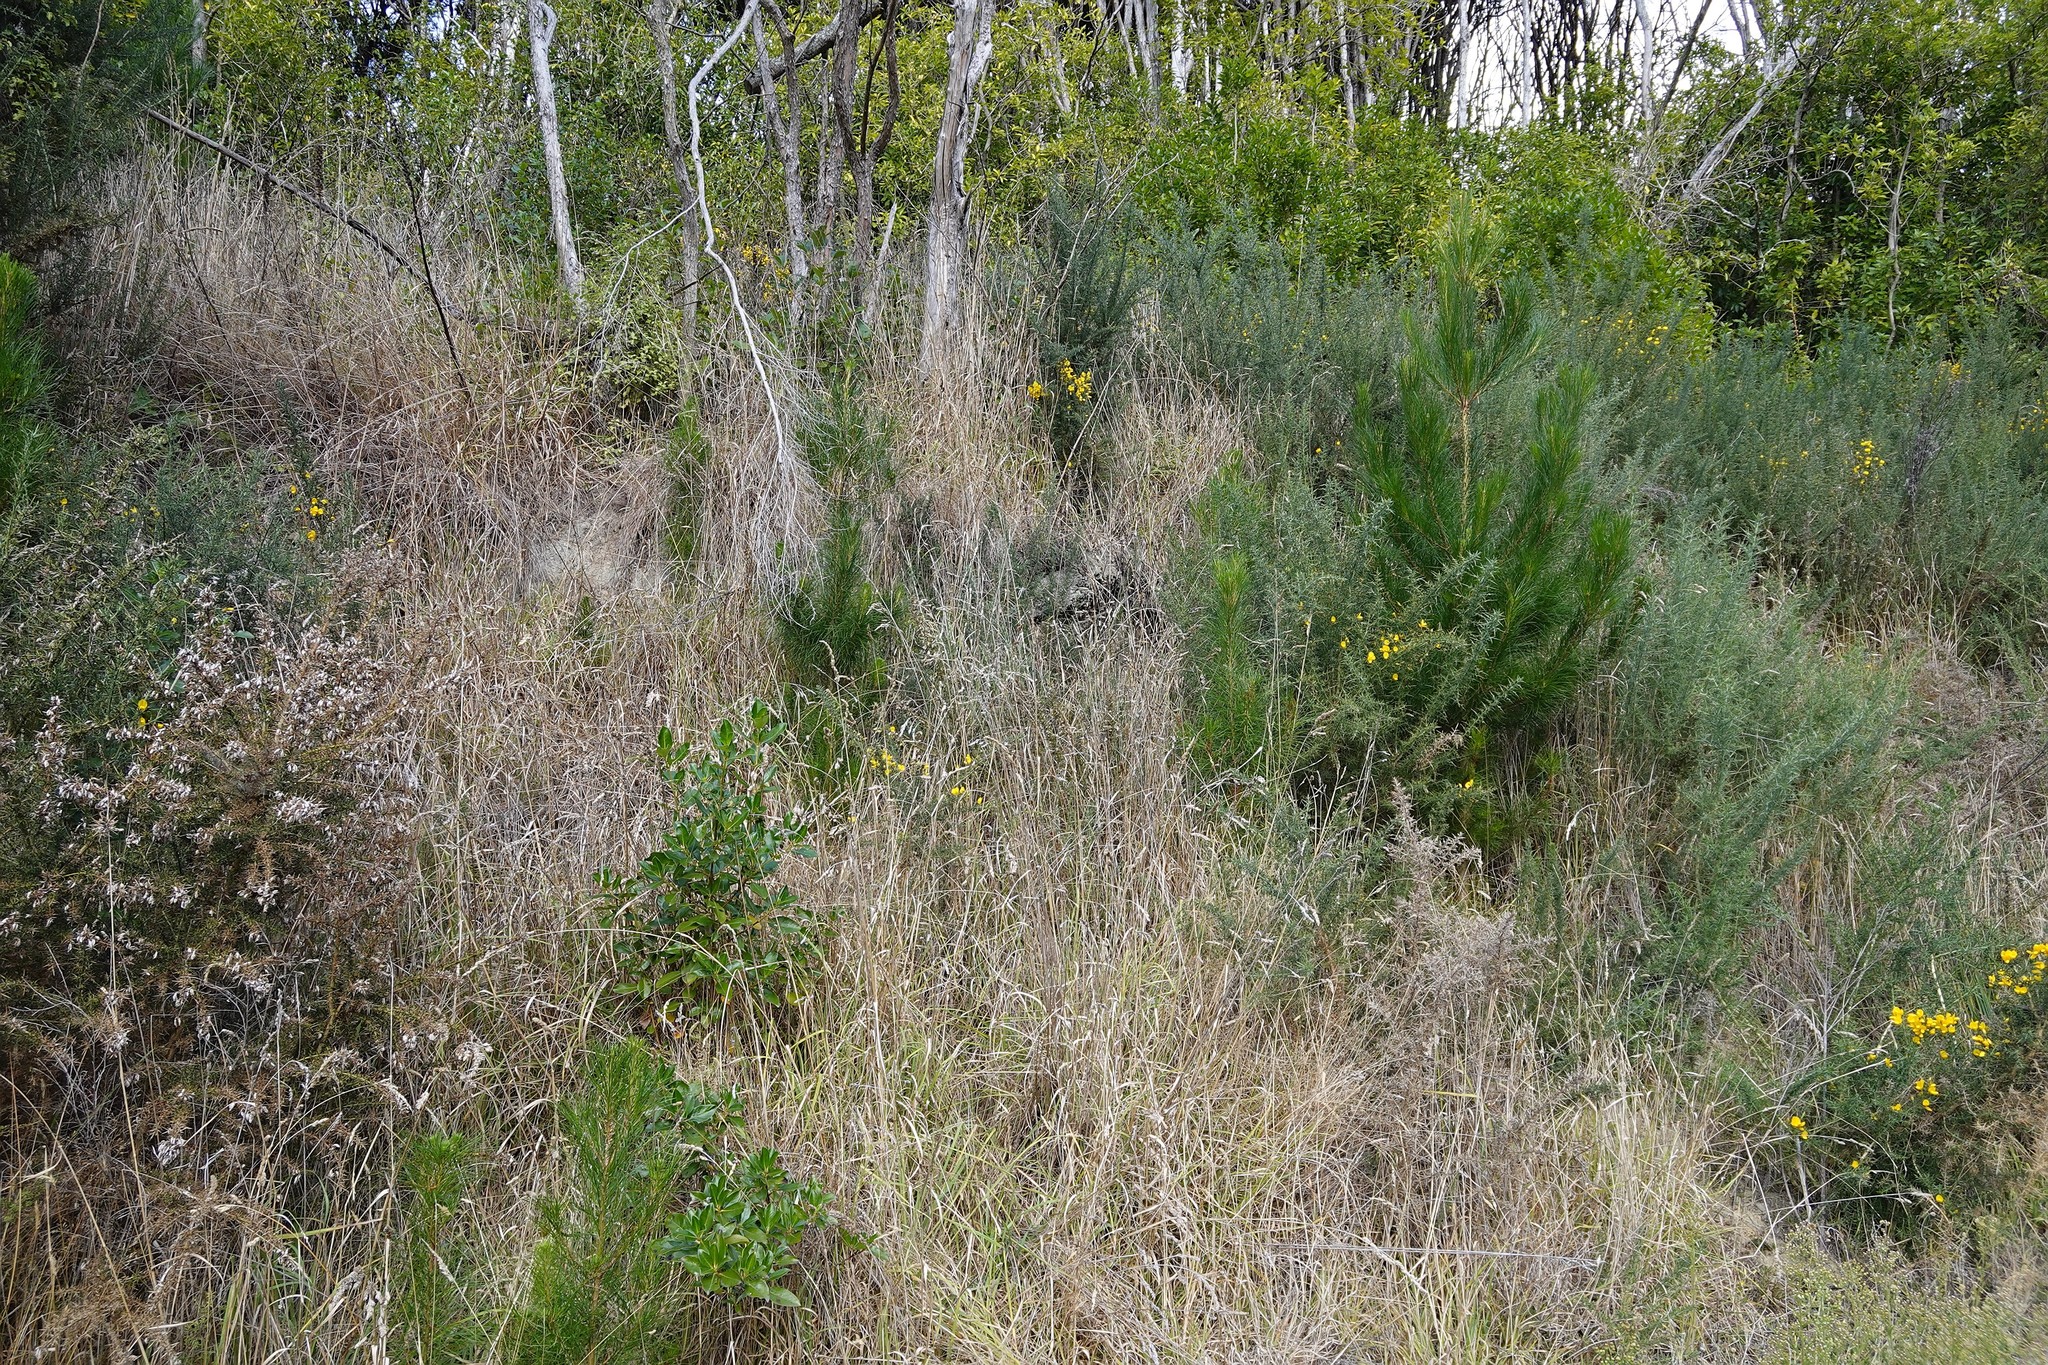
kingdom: Plantae
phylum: Tracheophyta
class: Pinopsida
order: Pinales
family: Pinaceae
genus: Pinus
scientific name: Pinus radiata
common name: Monterey pine
